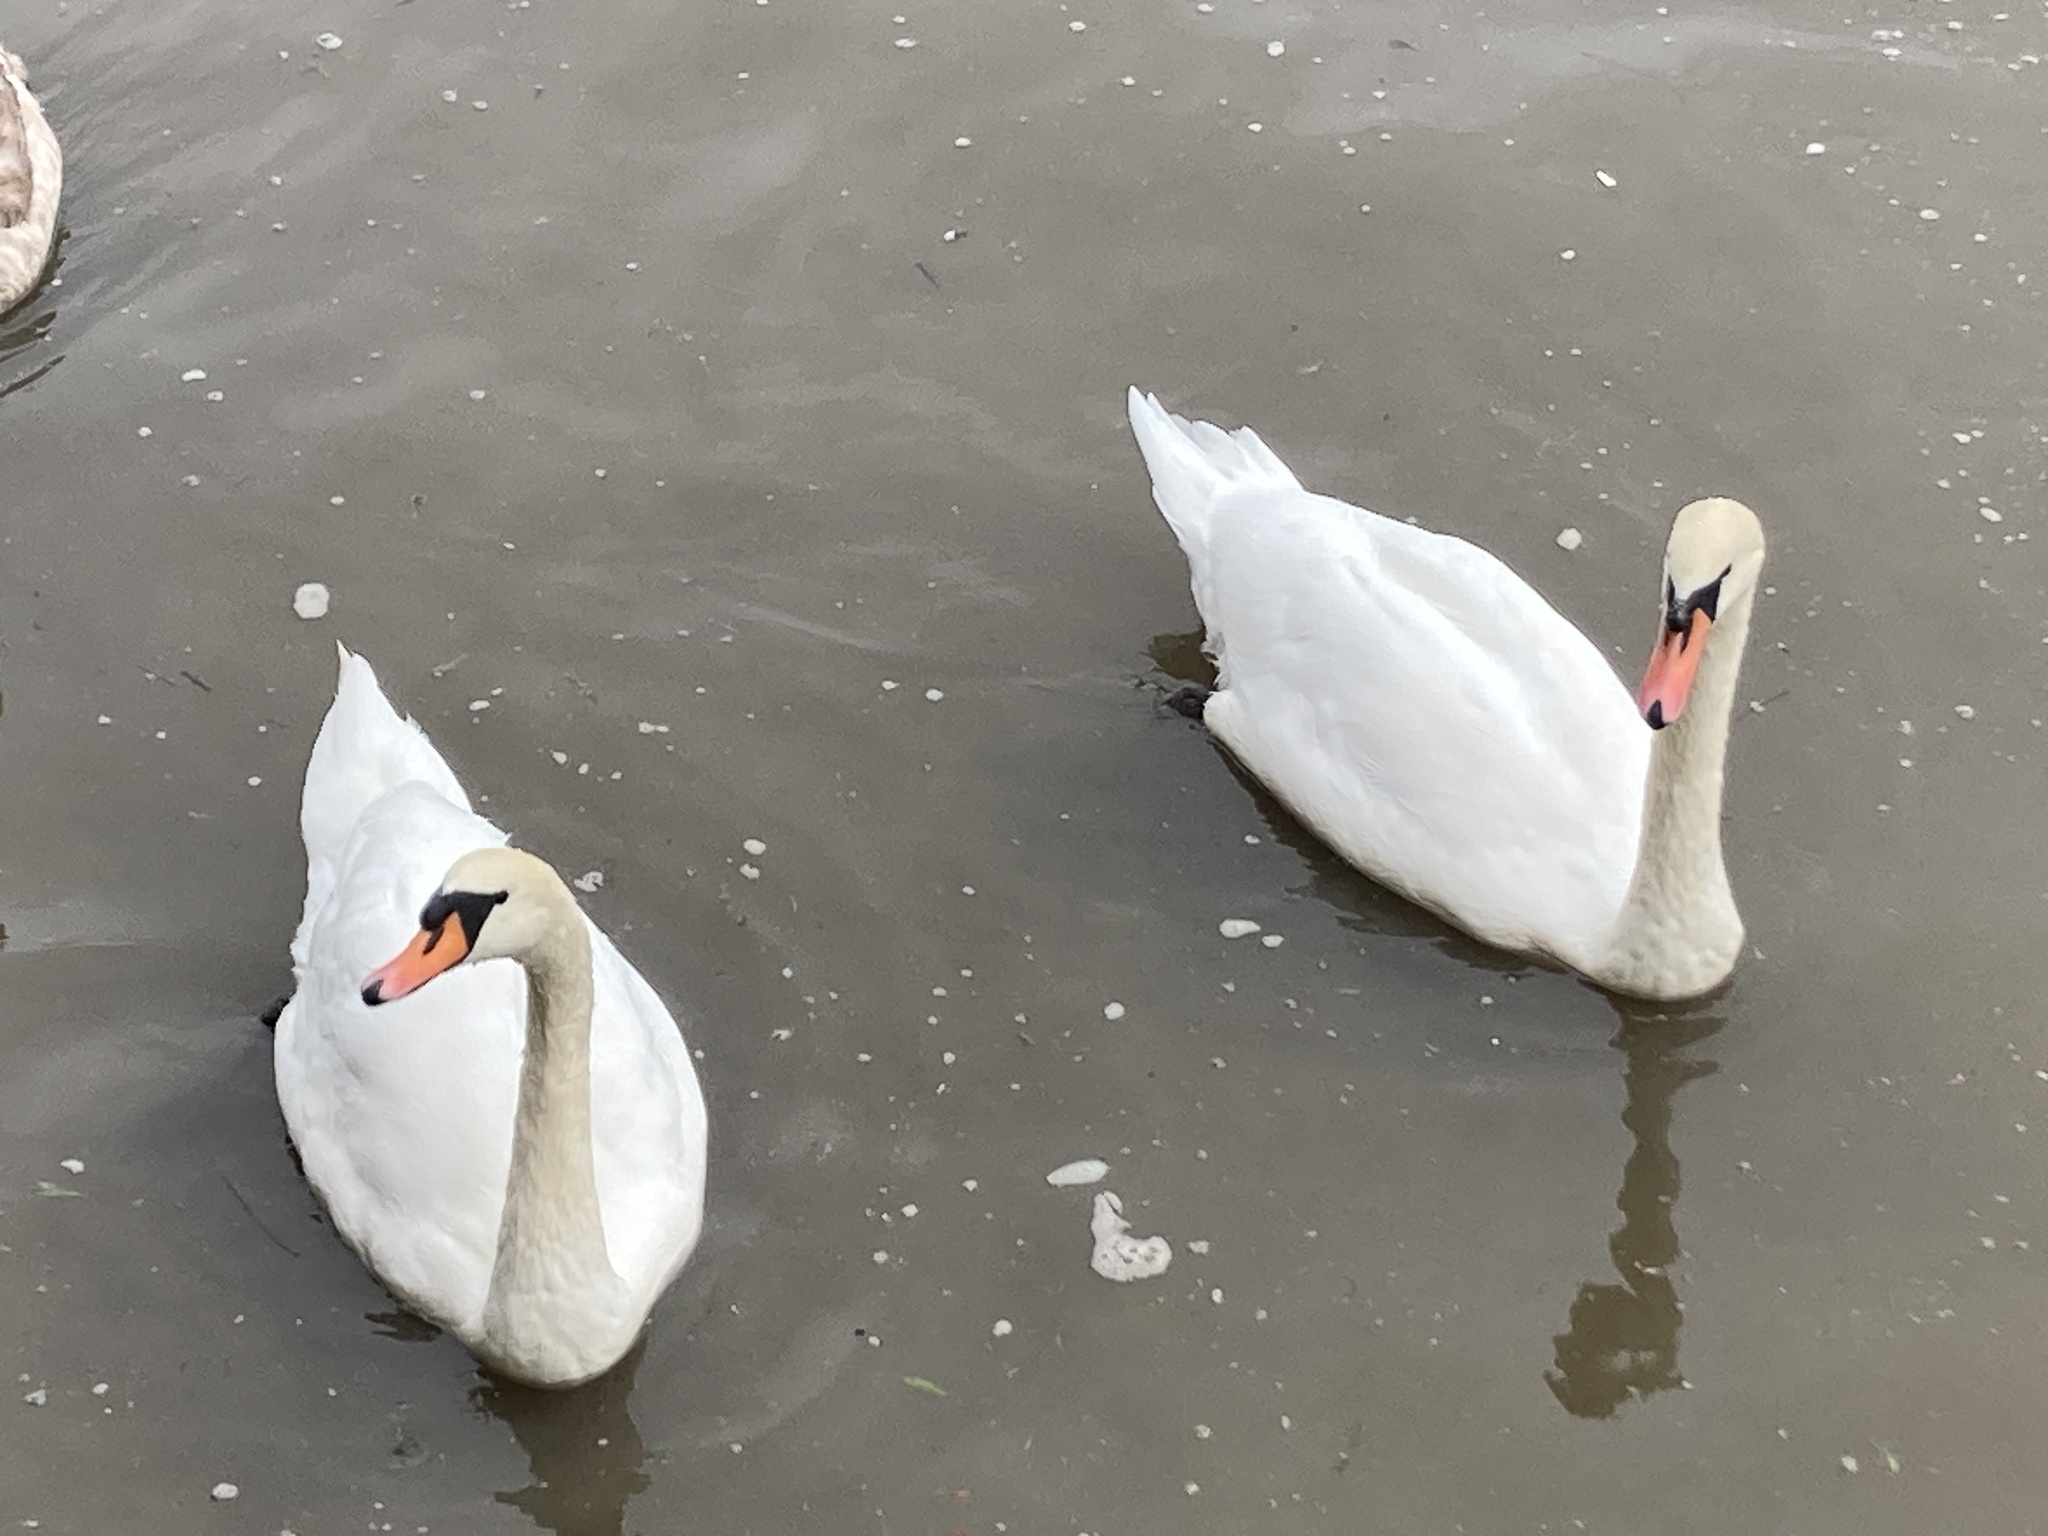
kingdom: Animalia
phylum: Chordata
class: Aves
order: Anseriformes
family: Anatidae
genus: Cygnus
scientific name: Cygnus olor
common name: Mute swan
